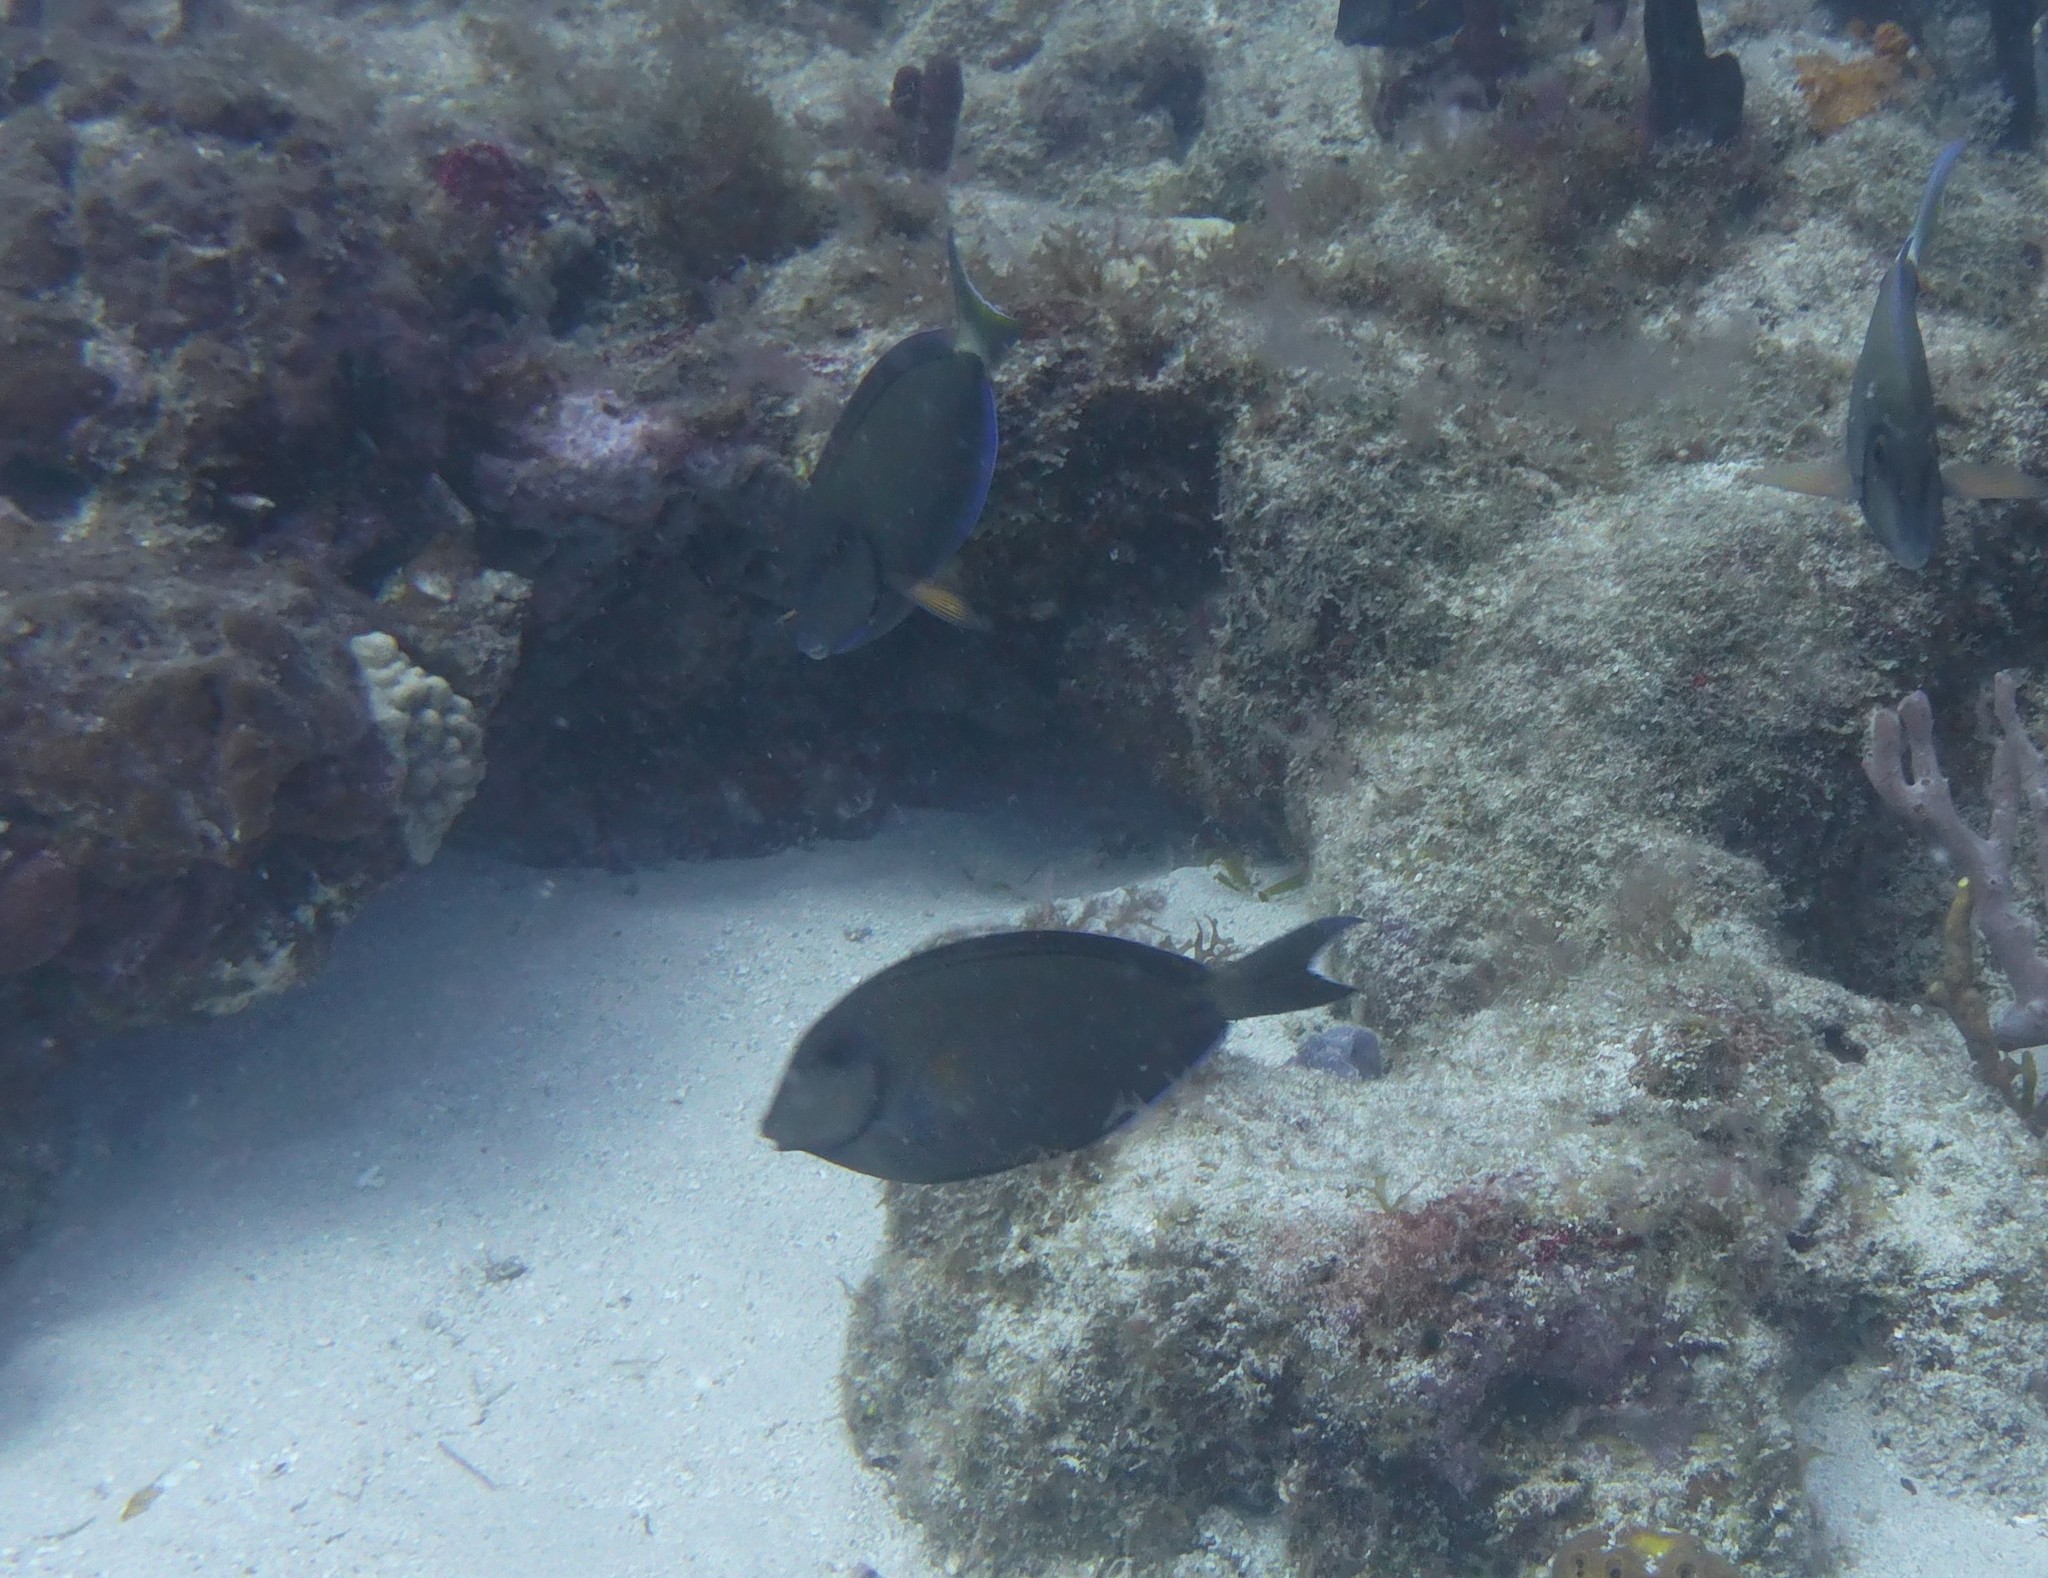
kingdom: Animalia
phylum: Chordata
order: Perciformes
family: Acanthuridae
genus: Acanthurus
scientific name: Acanthurus bahianus
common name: Ocean surgeon
